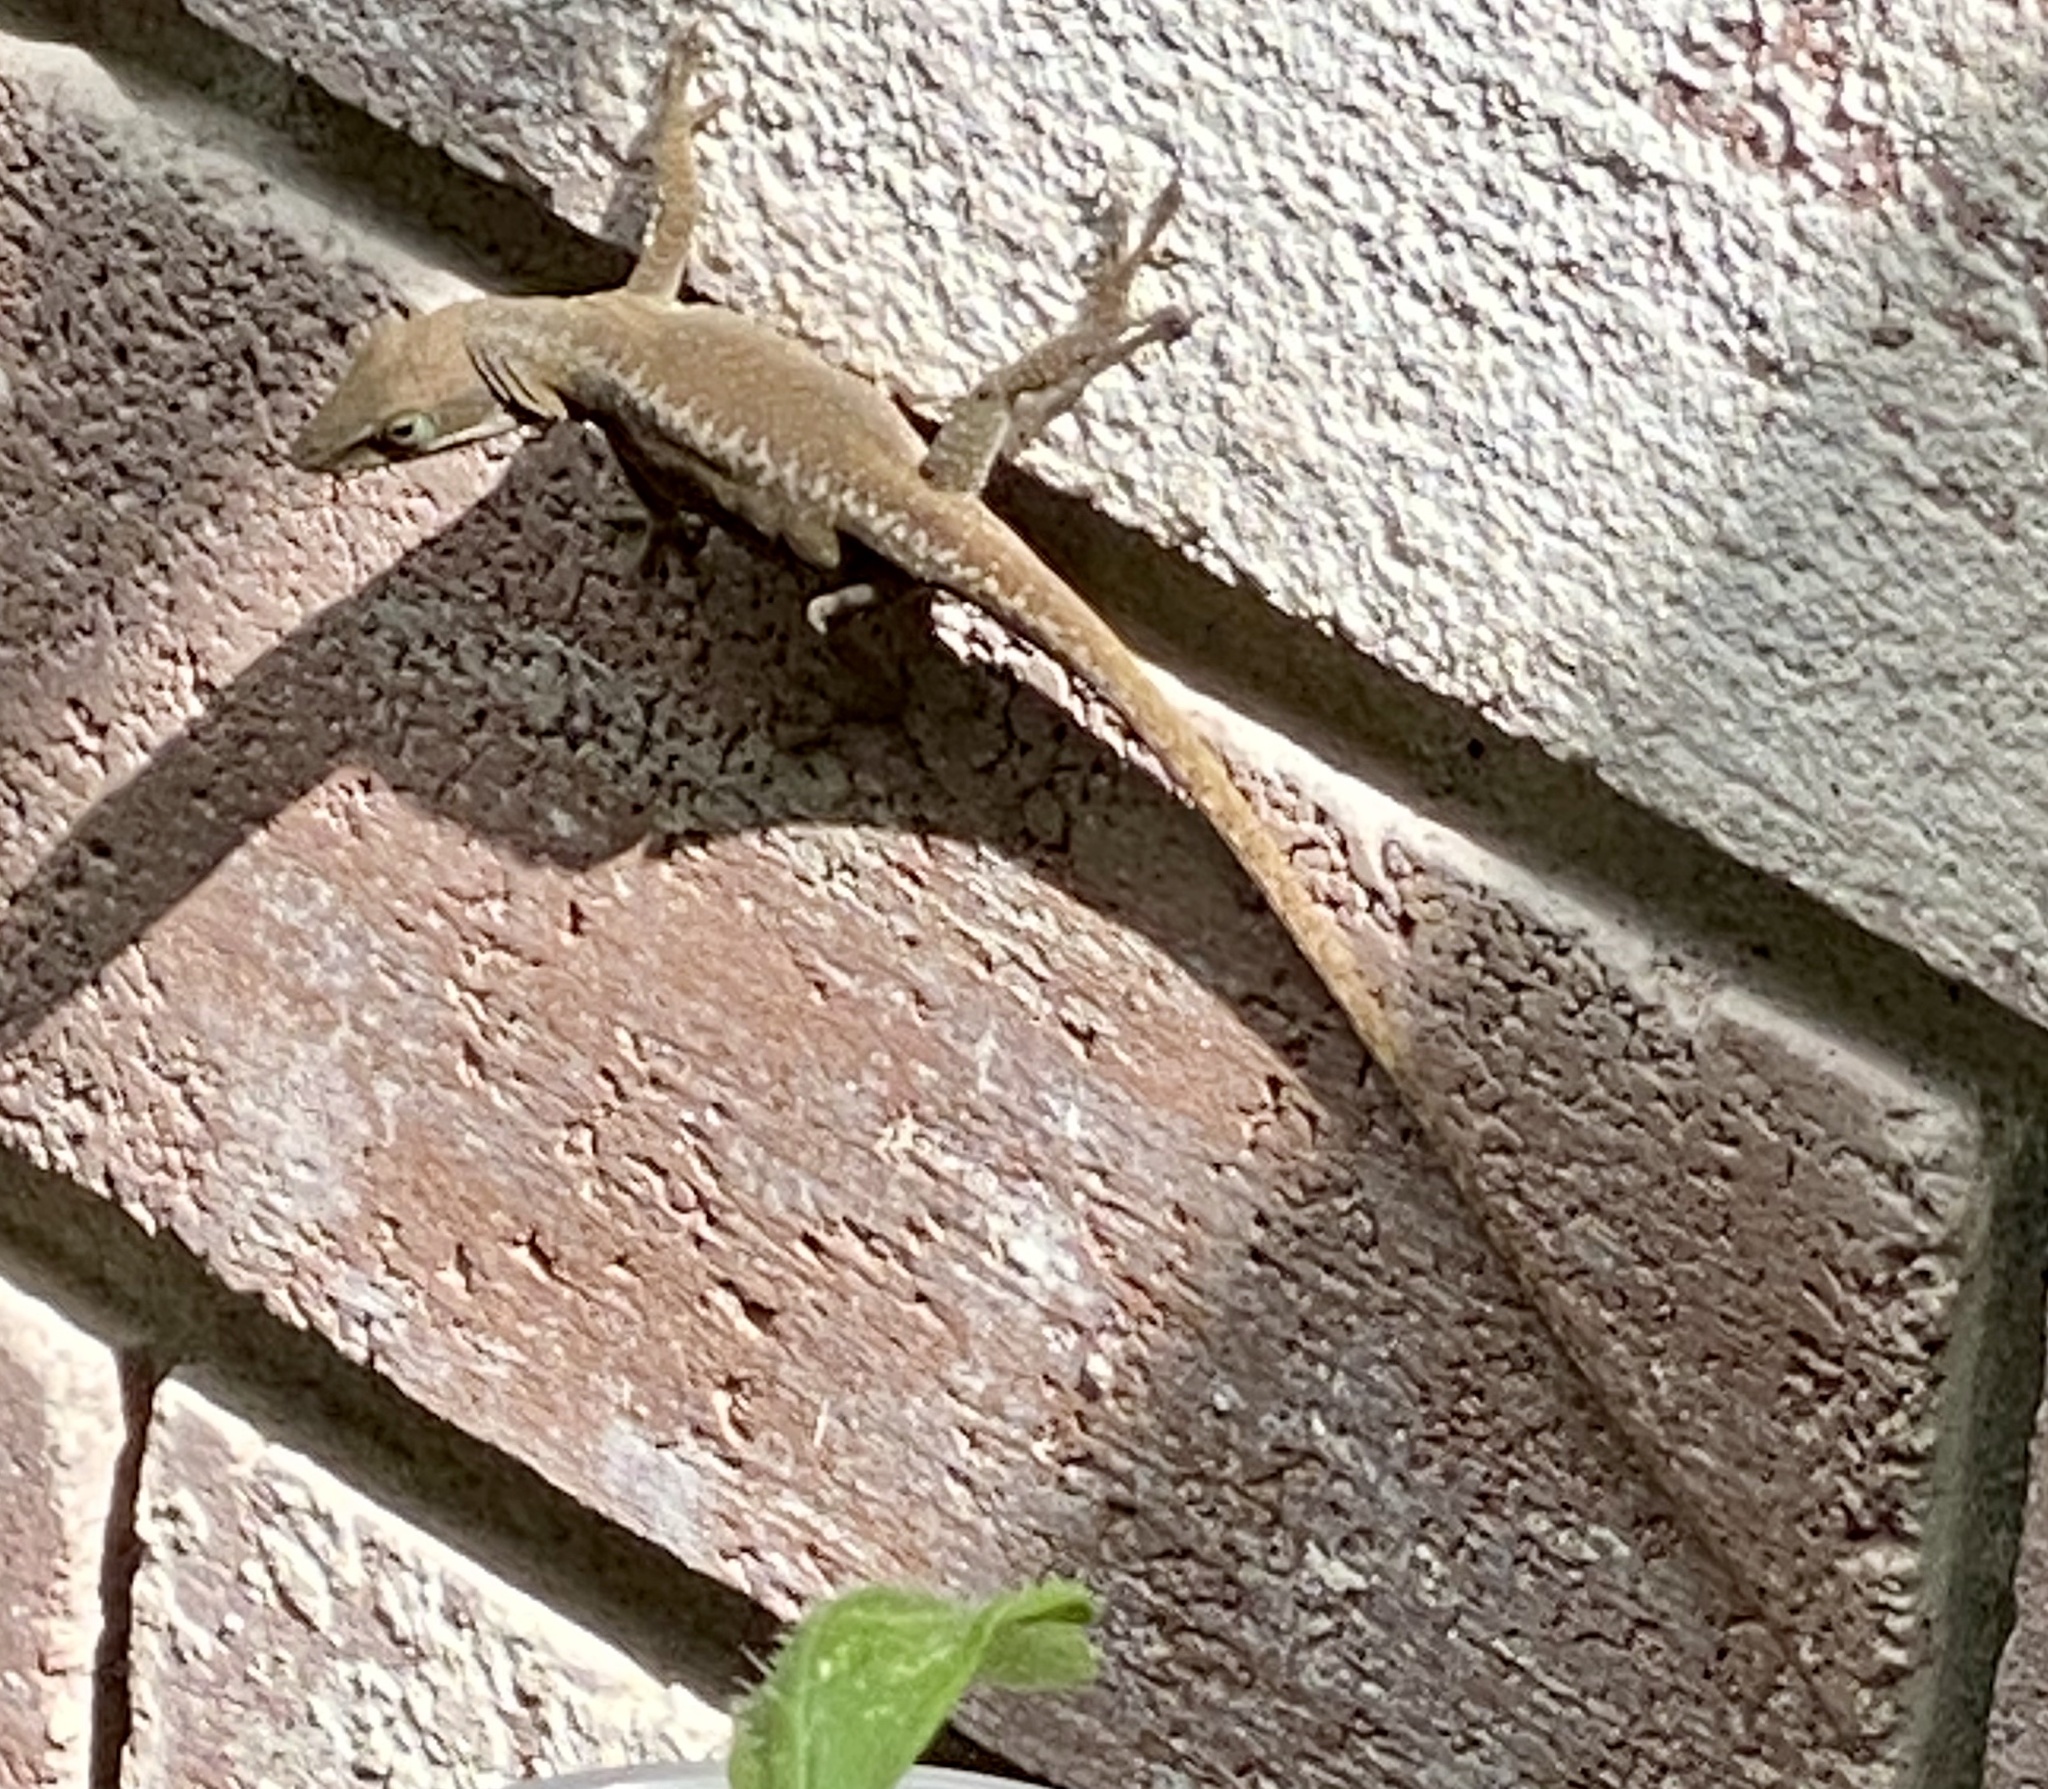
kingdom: Animalia
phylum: Chordata
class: Squamata
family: Dactyloidae
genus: Anolis
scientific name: Anolis carolinensis
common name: Green anole
